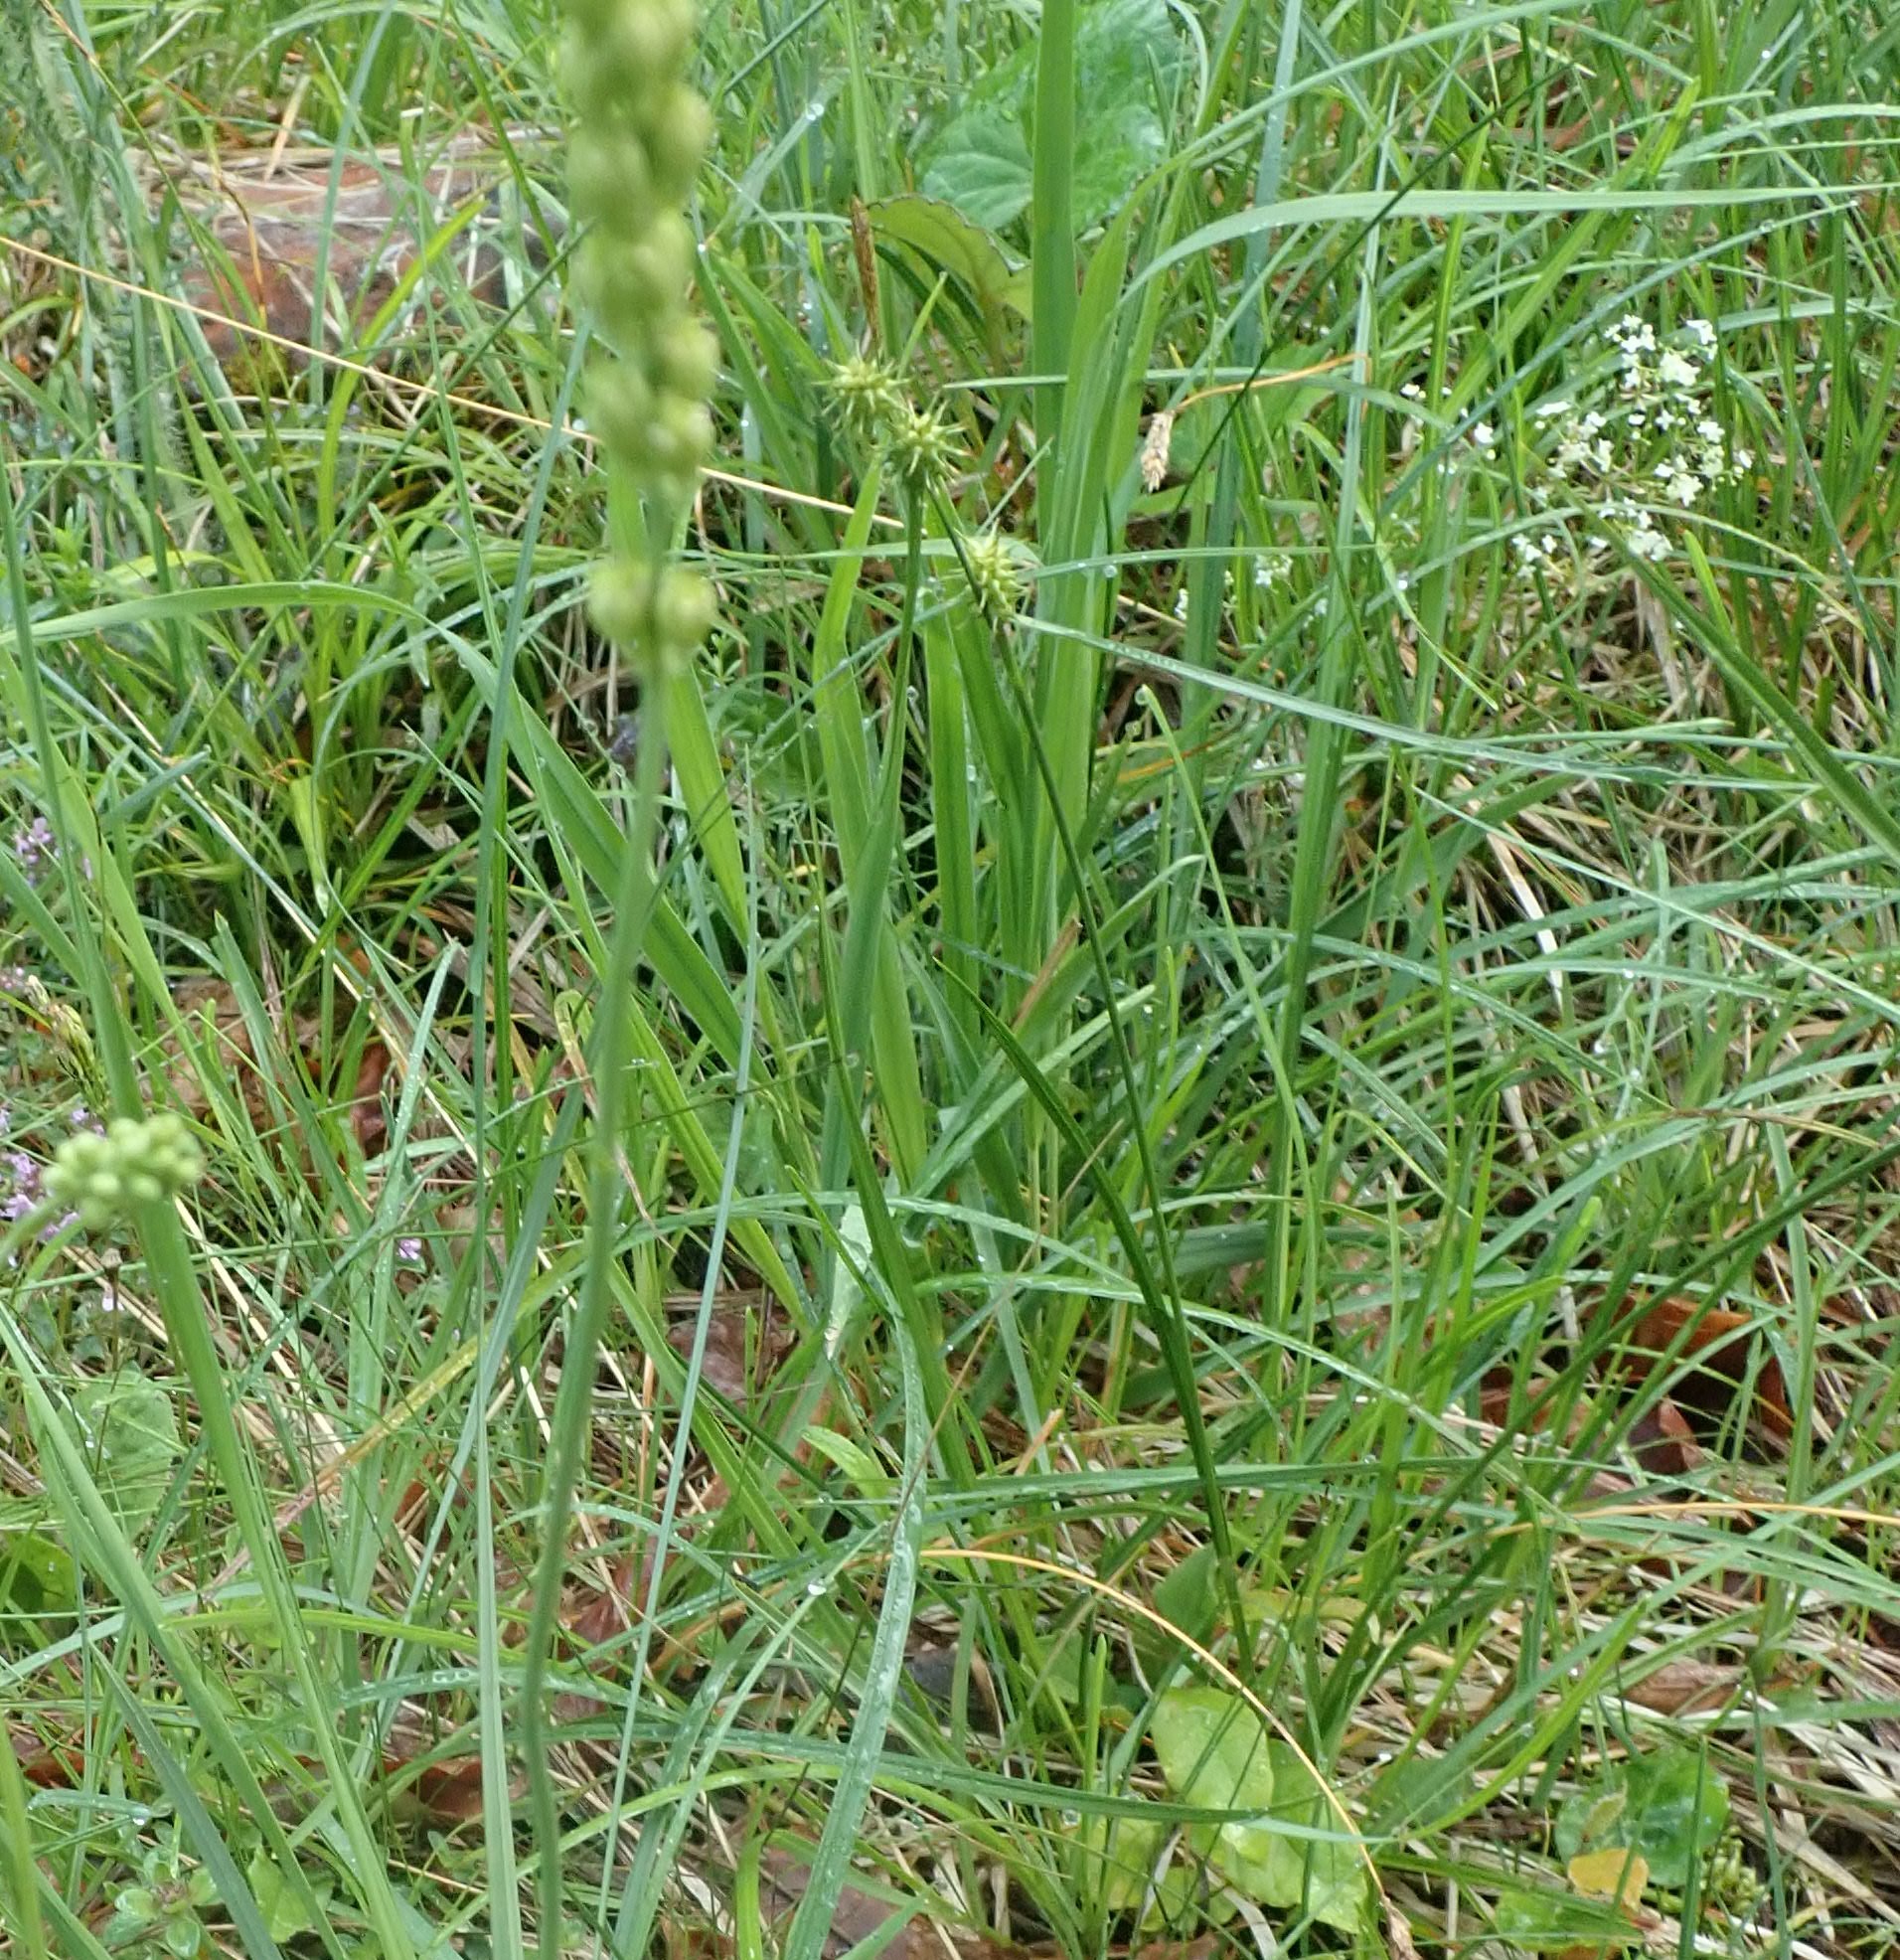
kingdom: Plantae
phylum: Tracheophyta
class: Liliopsida
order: Poales
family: Cyperaceae
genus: Carex
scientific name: Carex flava
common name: Large yellow-sedge
